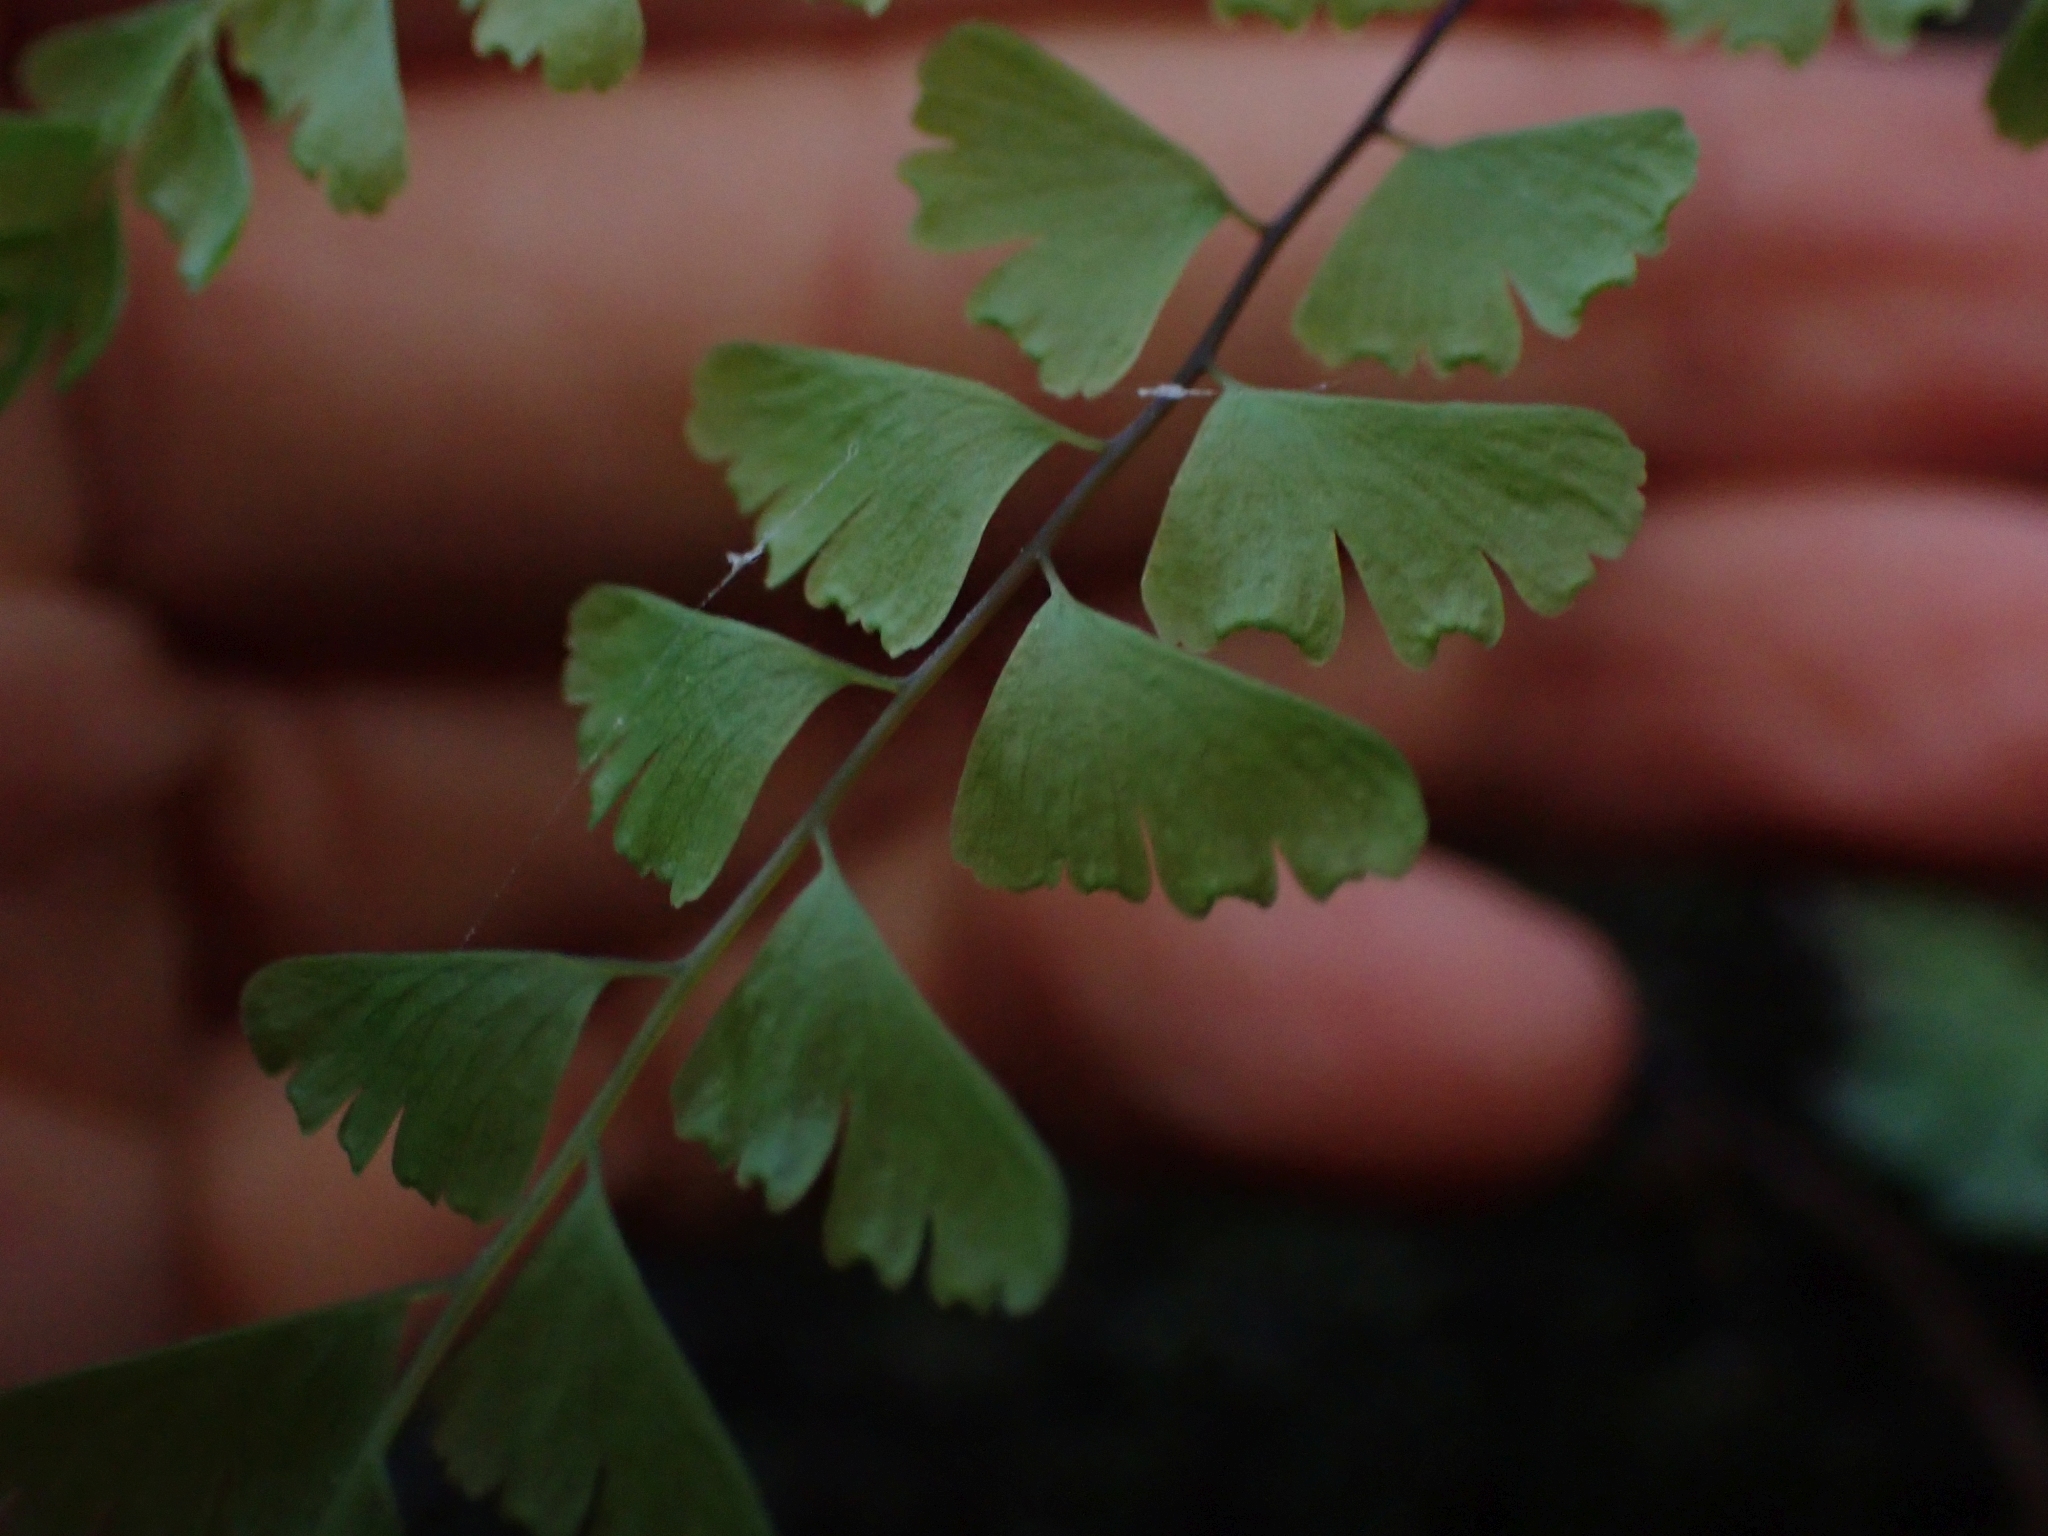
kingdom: Plantae
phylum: Tracheophyta
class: Polypodiopsida
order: Polypodiales
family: Pteridaceae
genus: Adiantum
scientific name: Adiantum aleuticum
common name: Aleutian maidenhair fern
